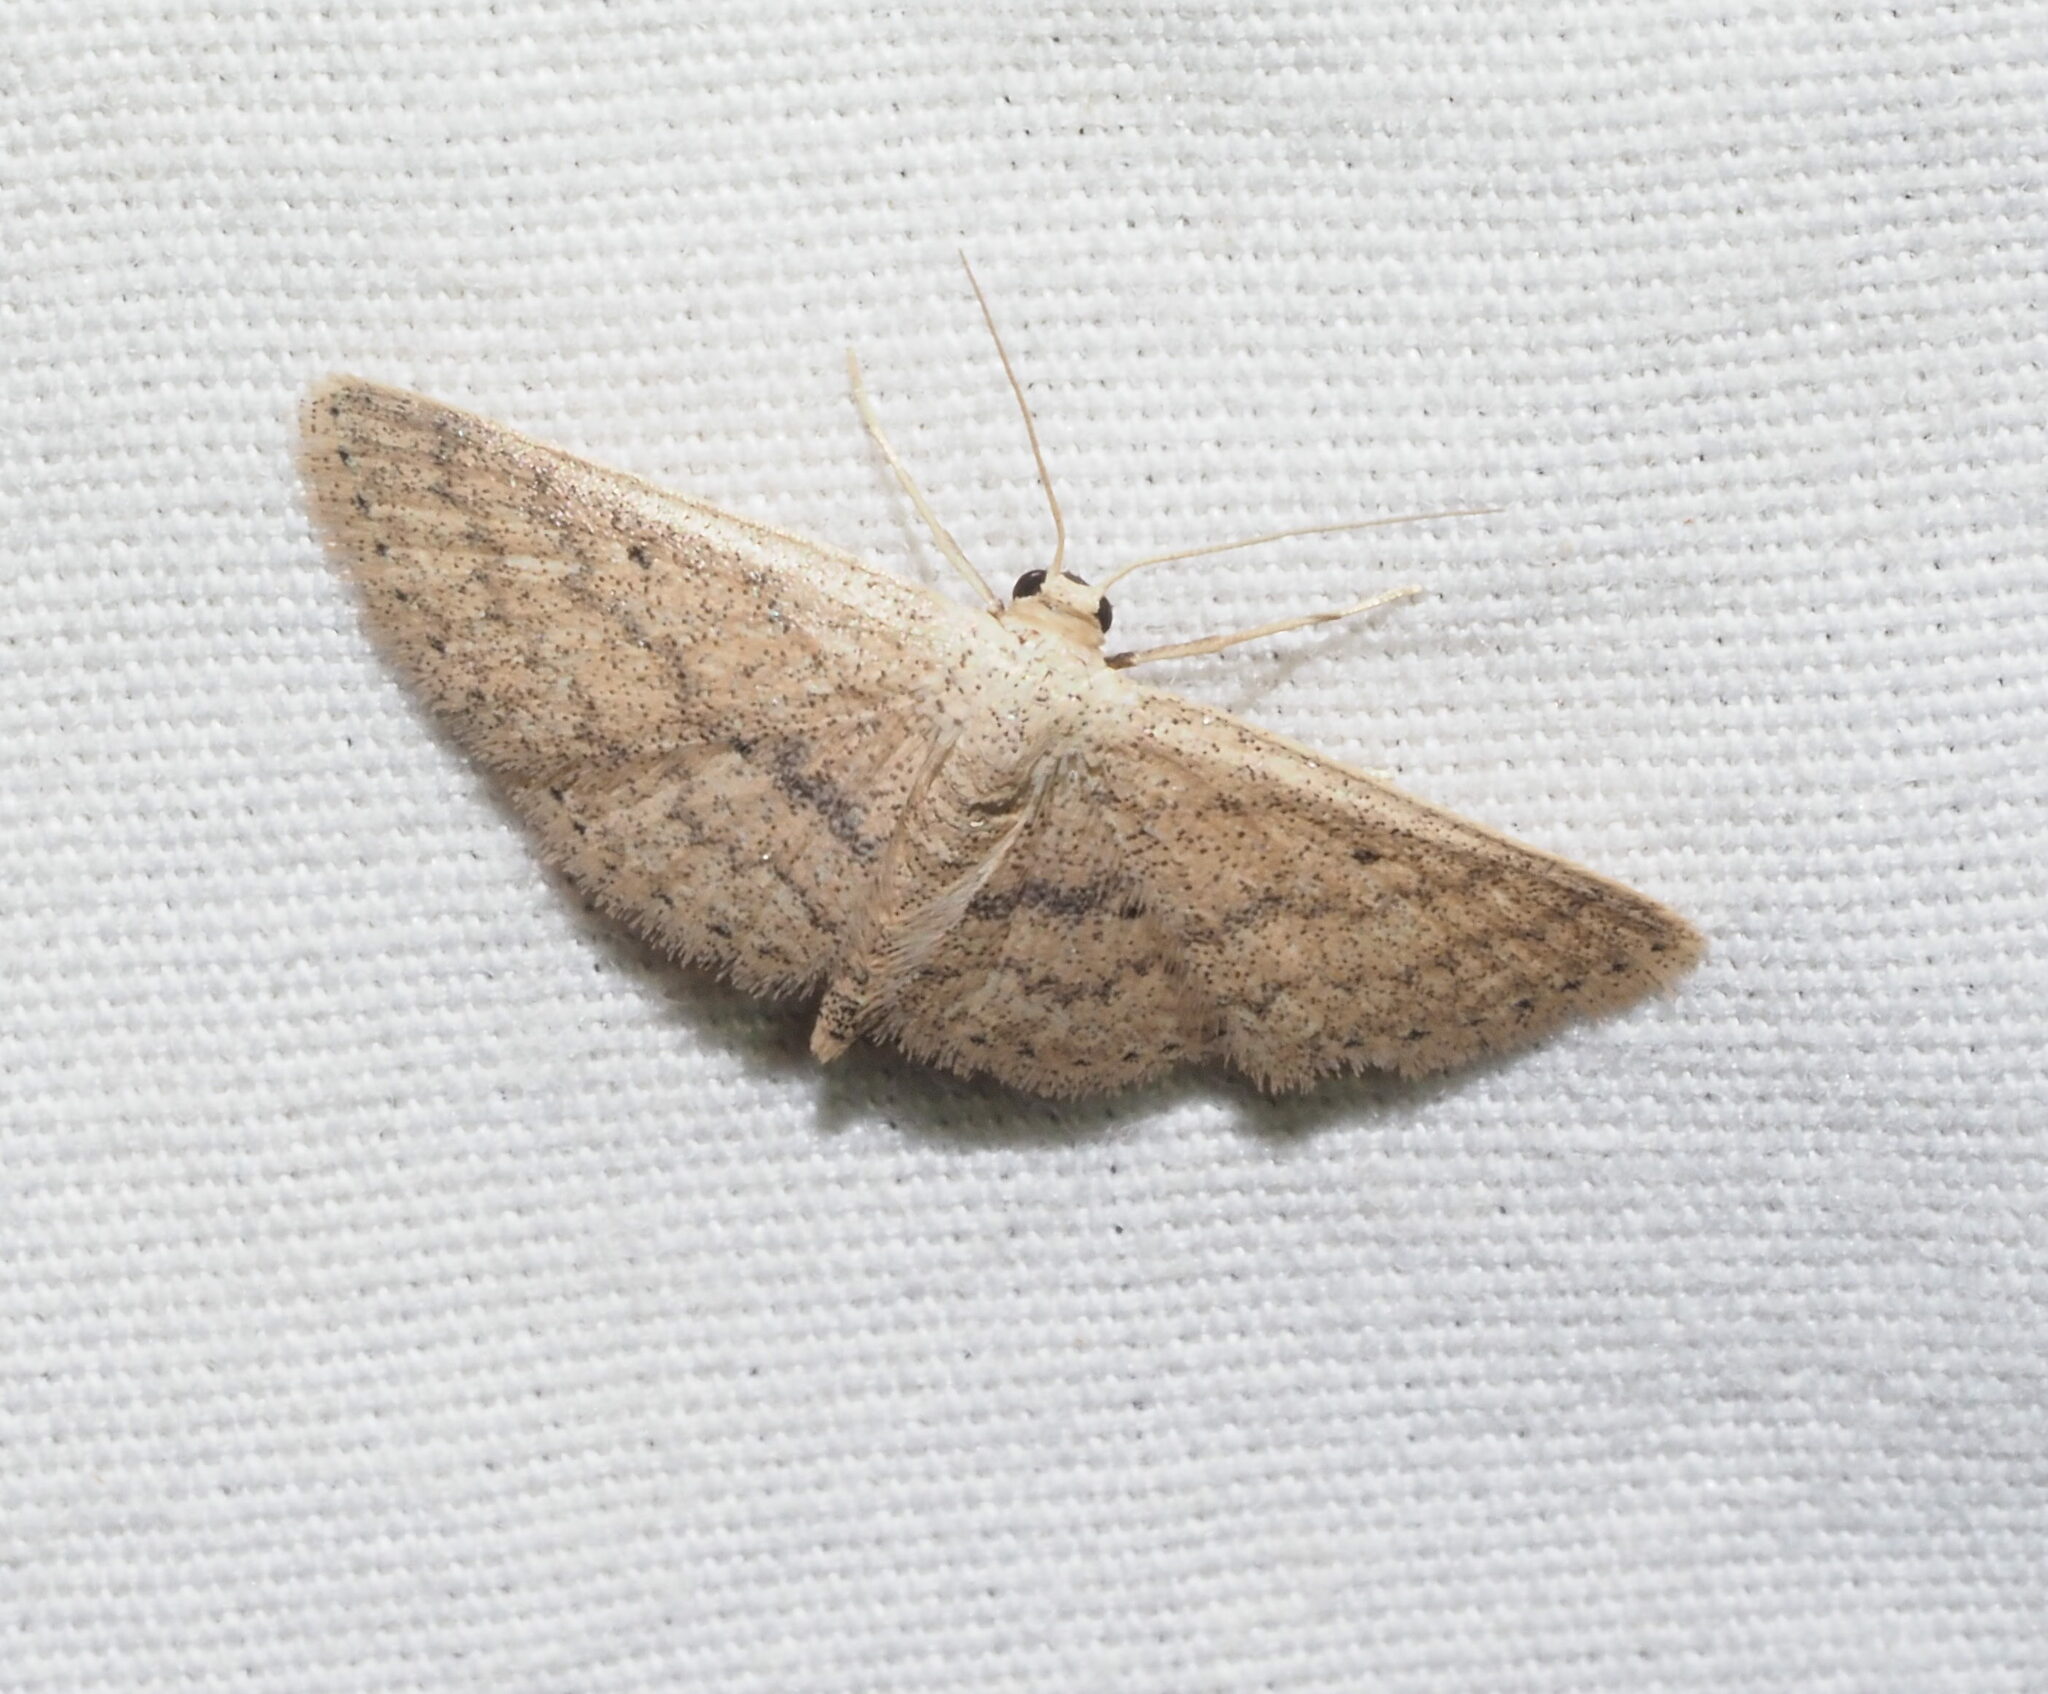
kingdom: Animalia
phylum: Arthropoda
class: Insecta
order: Lepidoptera
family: Geometridae
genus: Scopula
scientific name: Scopula personata
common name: Cankerworm
